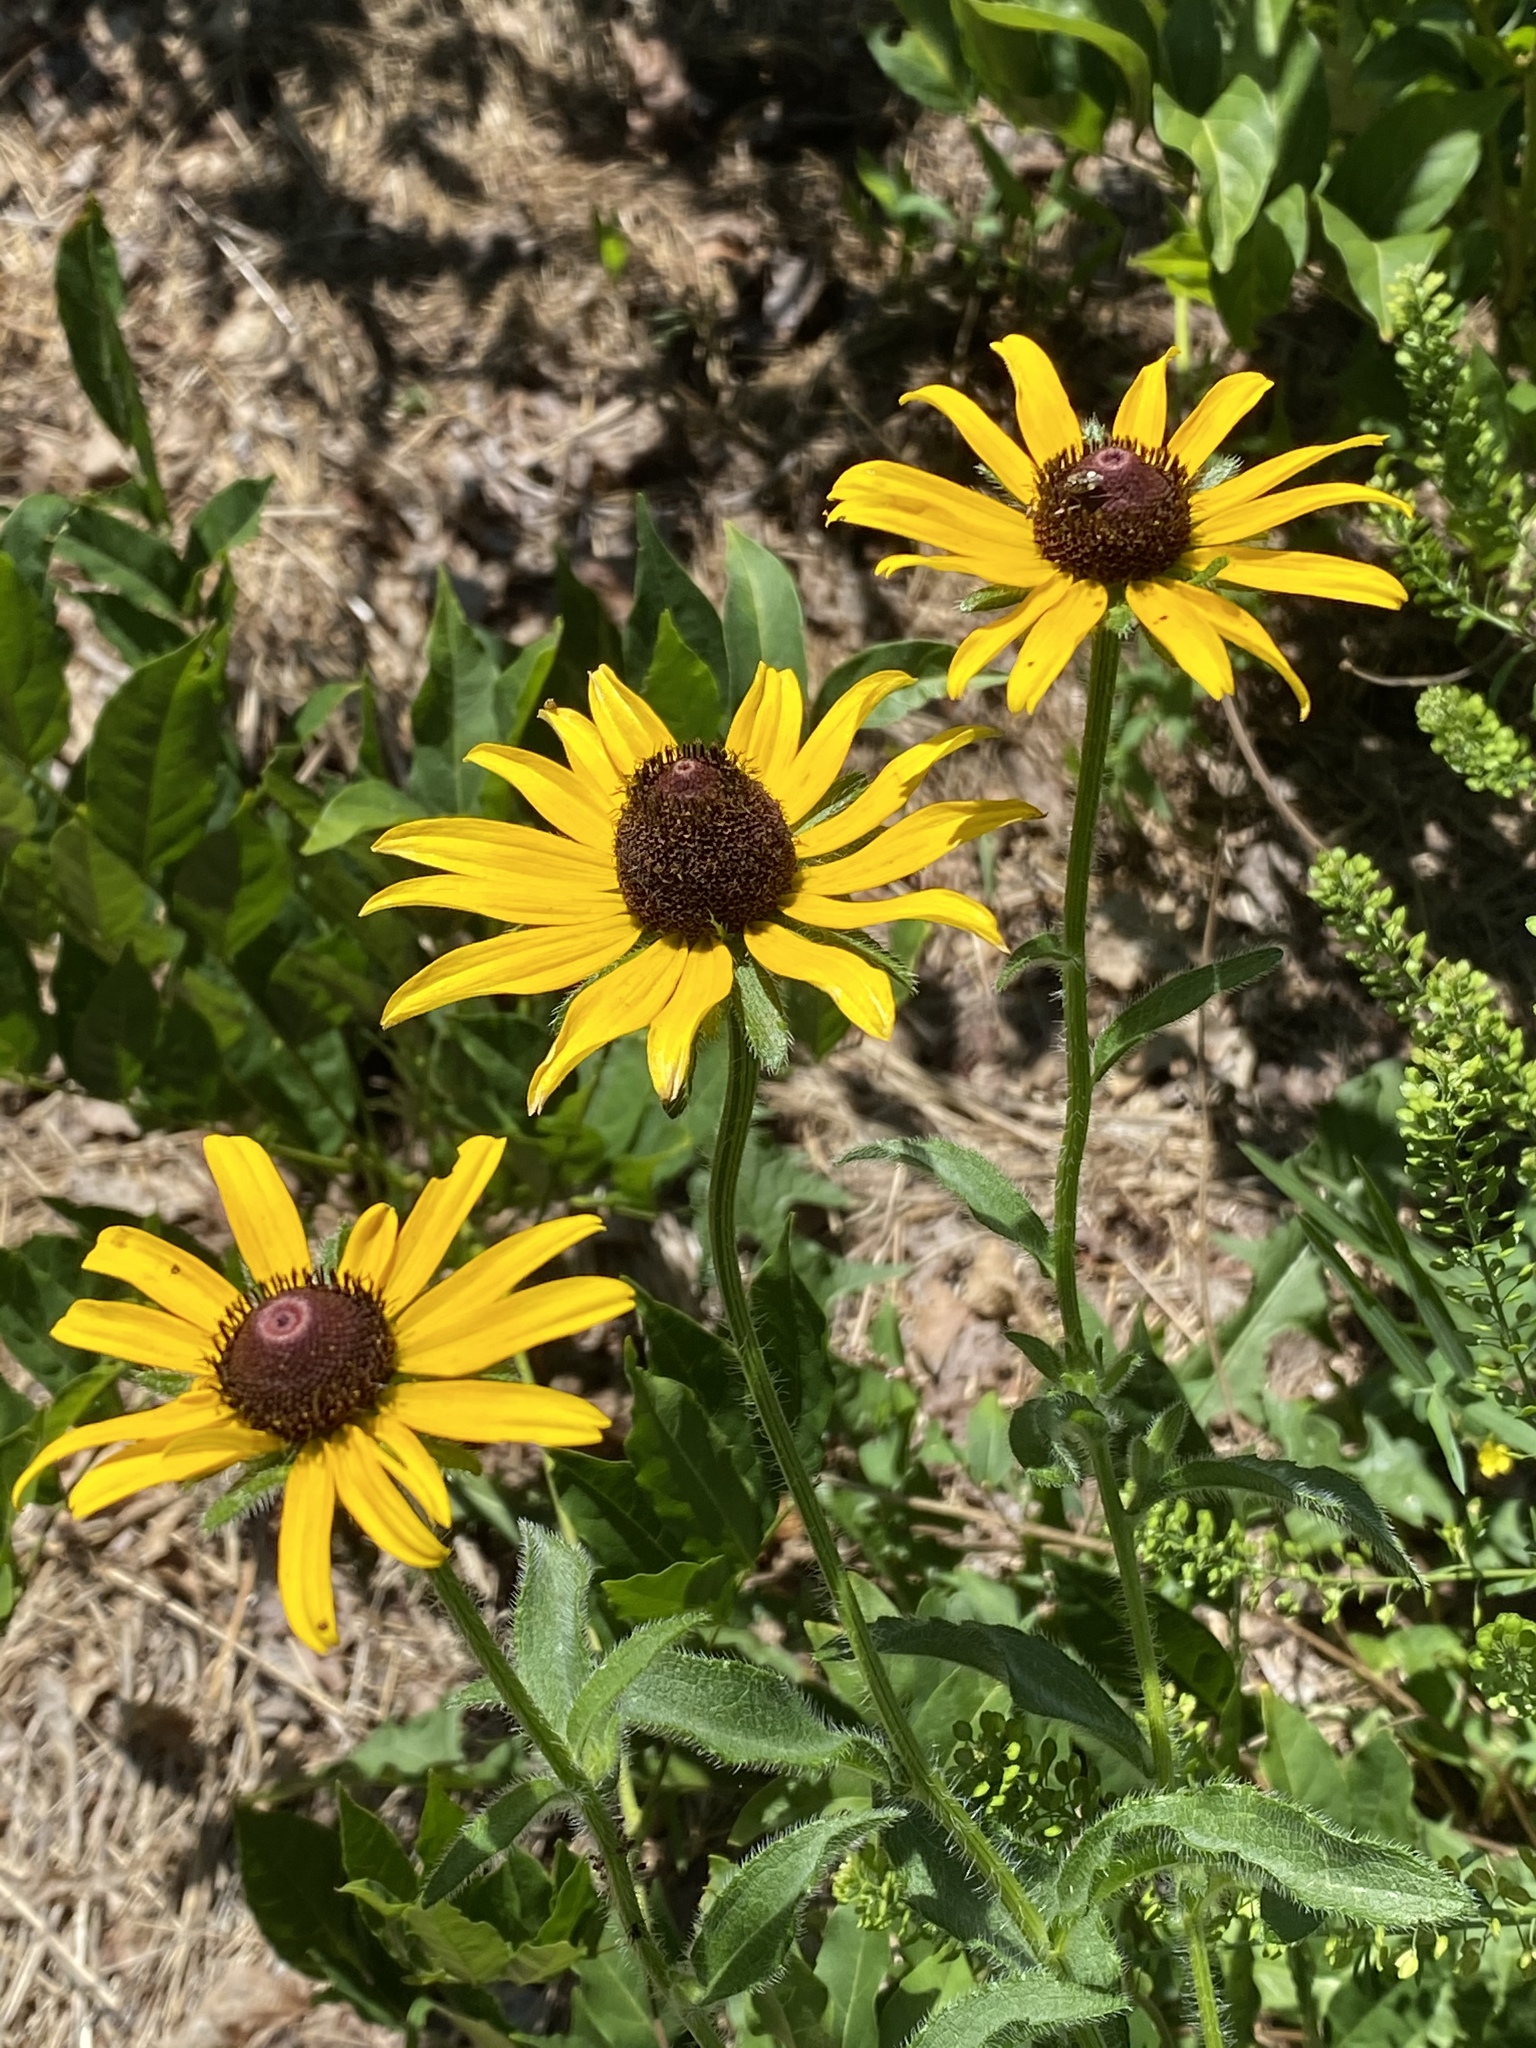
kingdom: Plantae
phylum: Tracheophyta
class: Magnoliopsida
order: Asterales
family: Asteraceae
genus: Rudbeckia
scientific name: Rudbeckia hirta
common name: Black-eyed-susan
